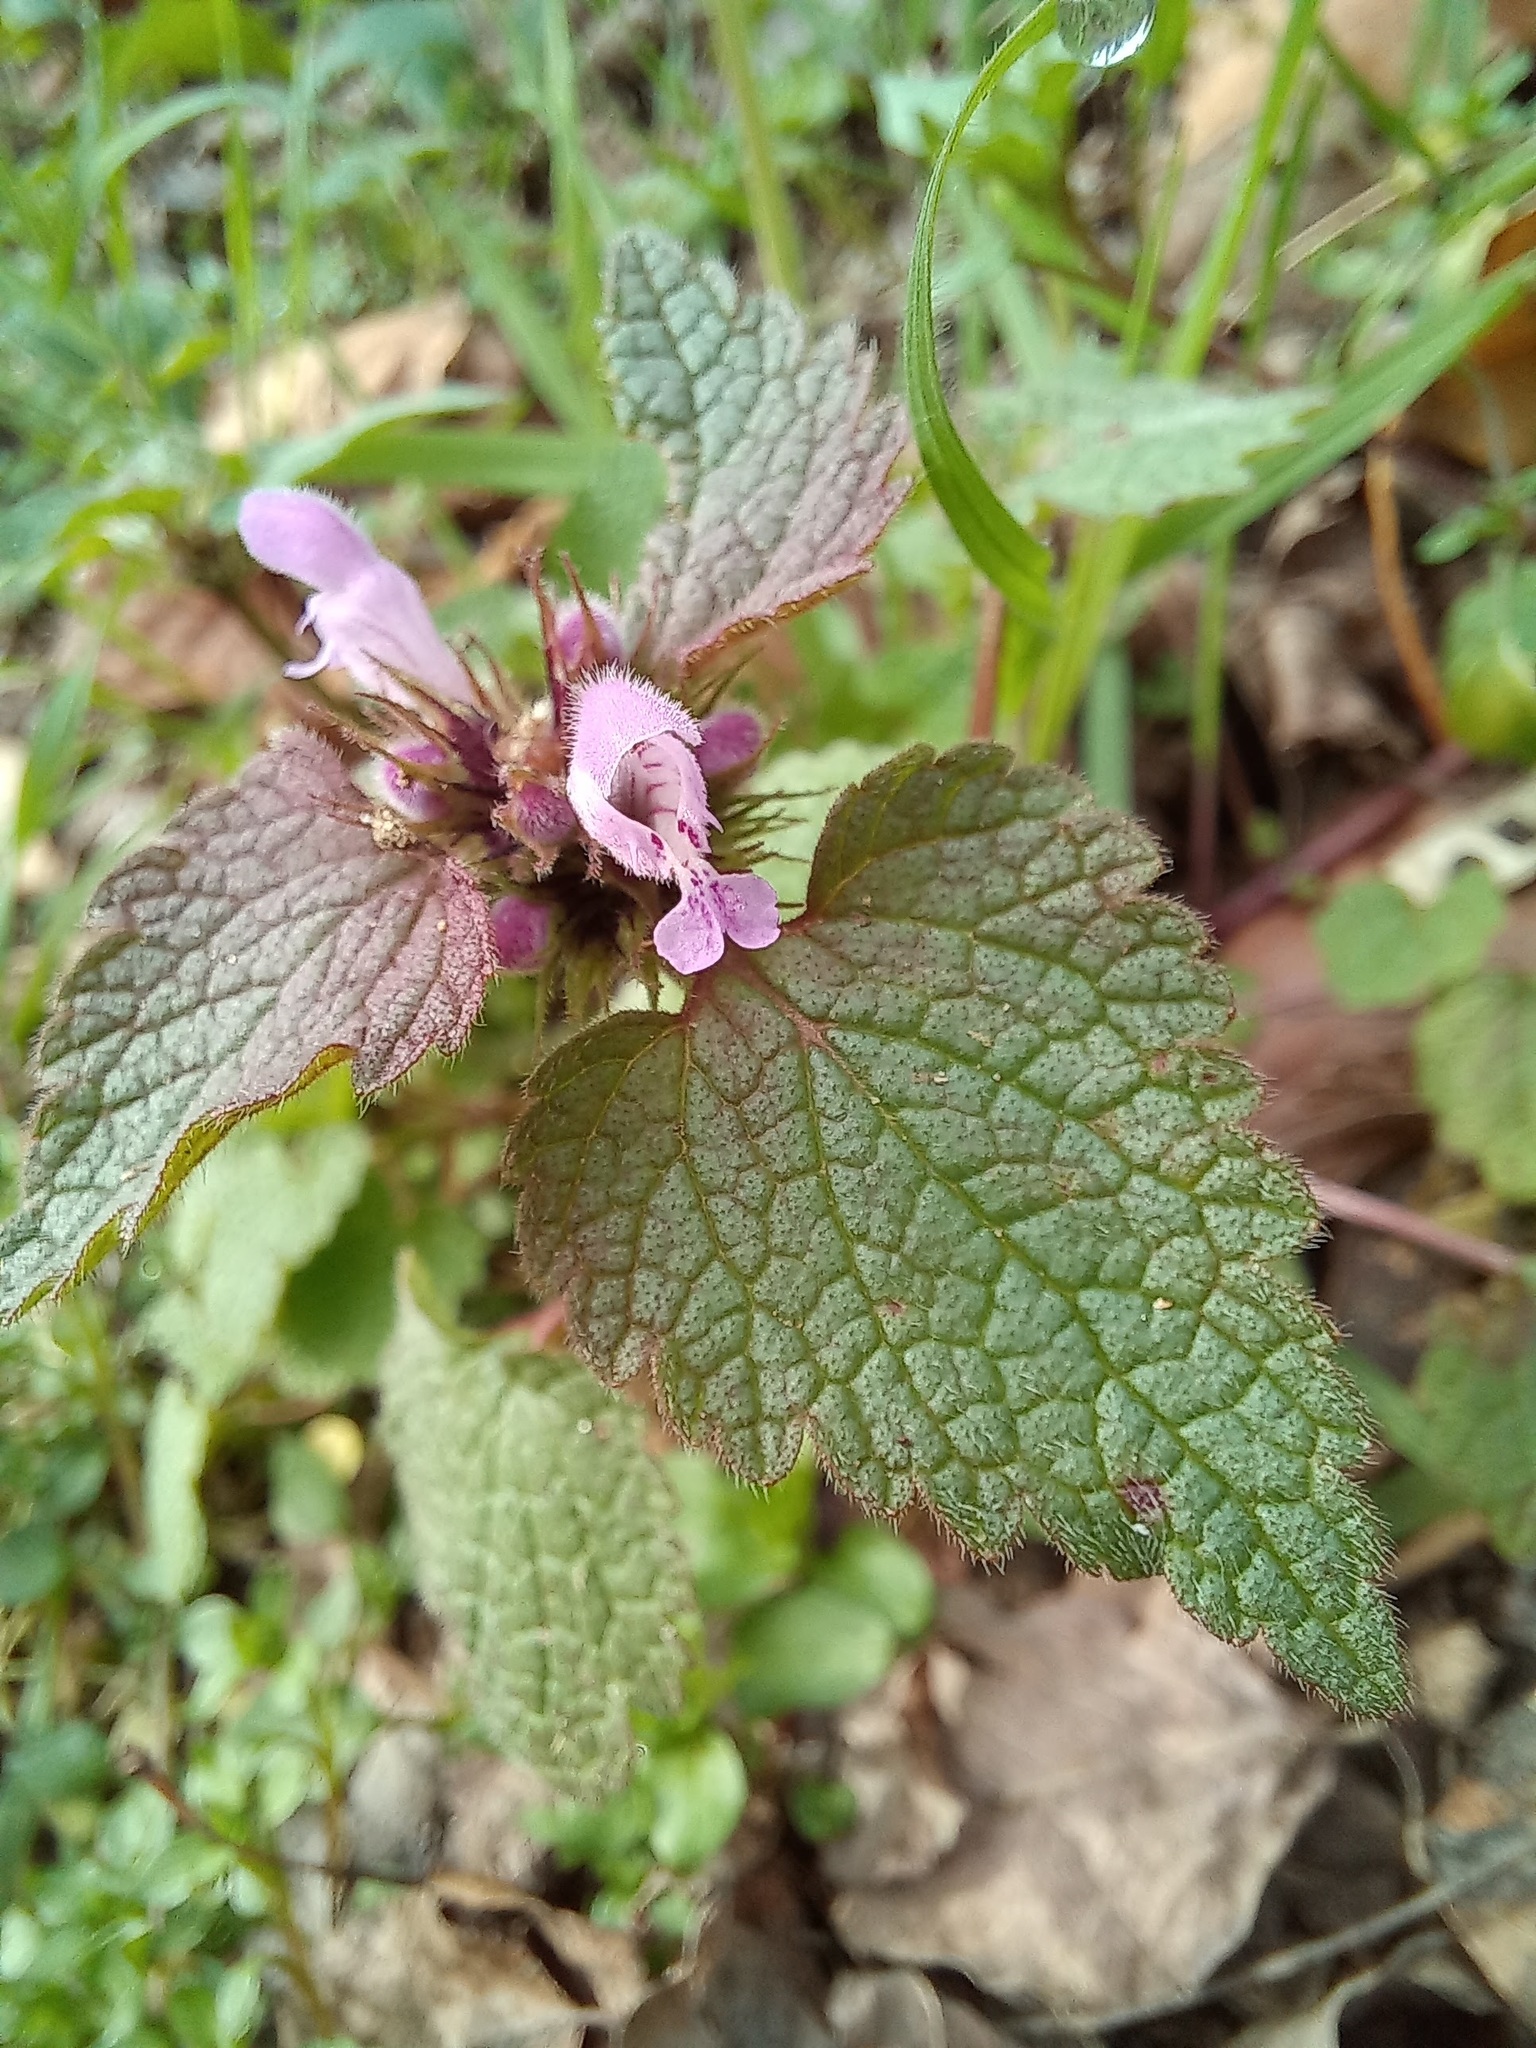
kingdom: Plantae
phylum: Tracheophyta
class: Magnoliopsida
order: Lamiales
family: Lamiaceae
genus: Lamium
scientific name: Lamium purpureum
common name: Red dead-nettle
